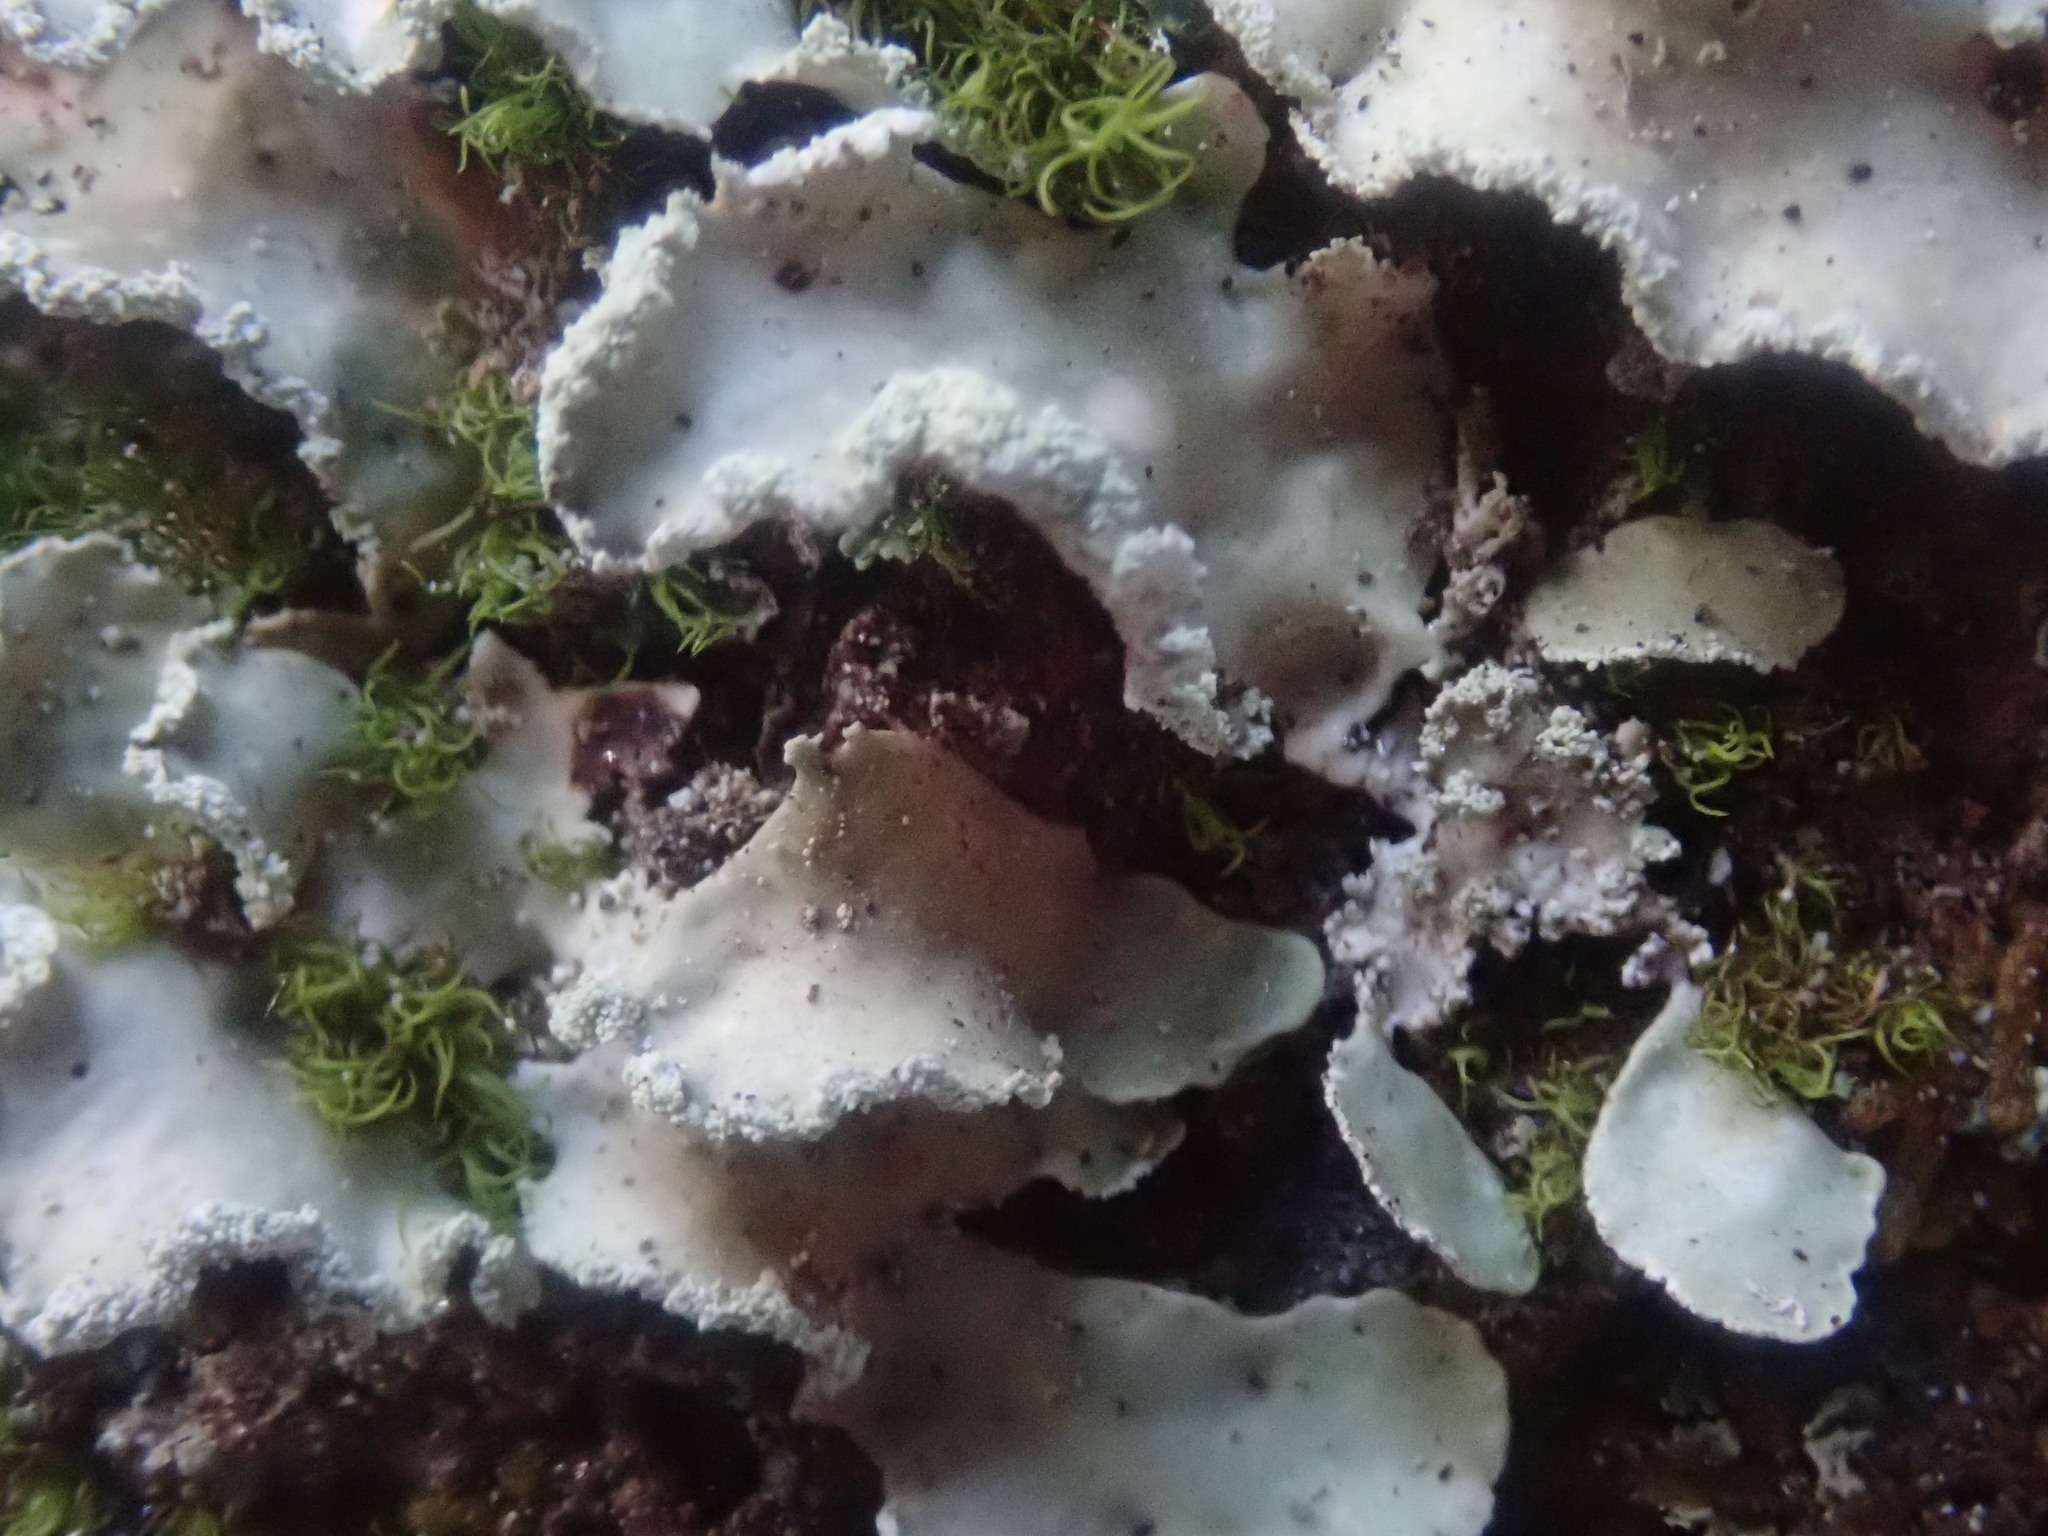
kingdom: Fungi
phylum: Ascomycota
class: Lecanoromycetes
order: Lecanorales
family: Parmeliaceae
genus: Usnocetraria
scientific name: Usnocetraria oakesiana
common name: Yellow ribbon lichen
